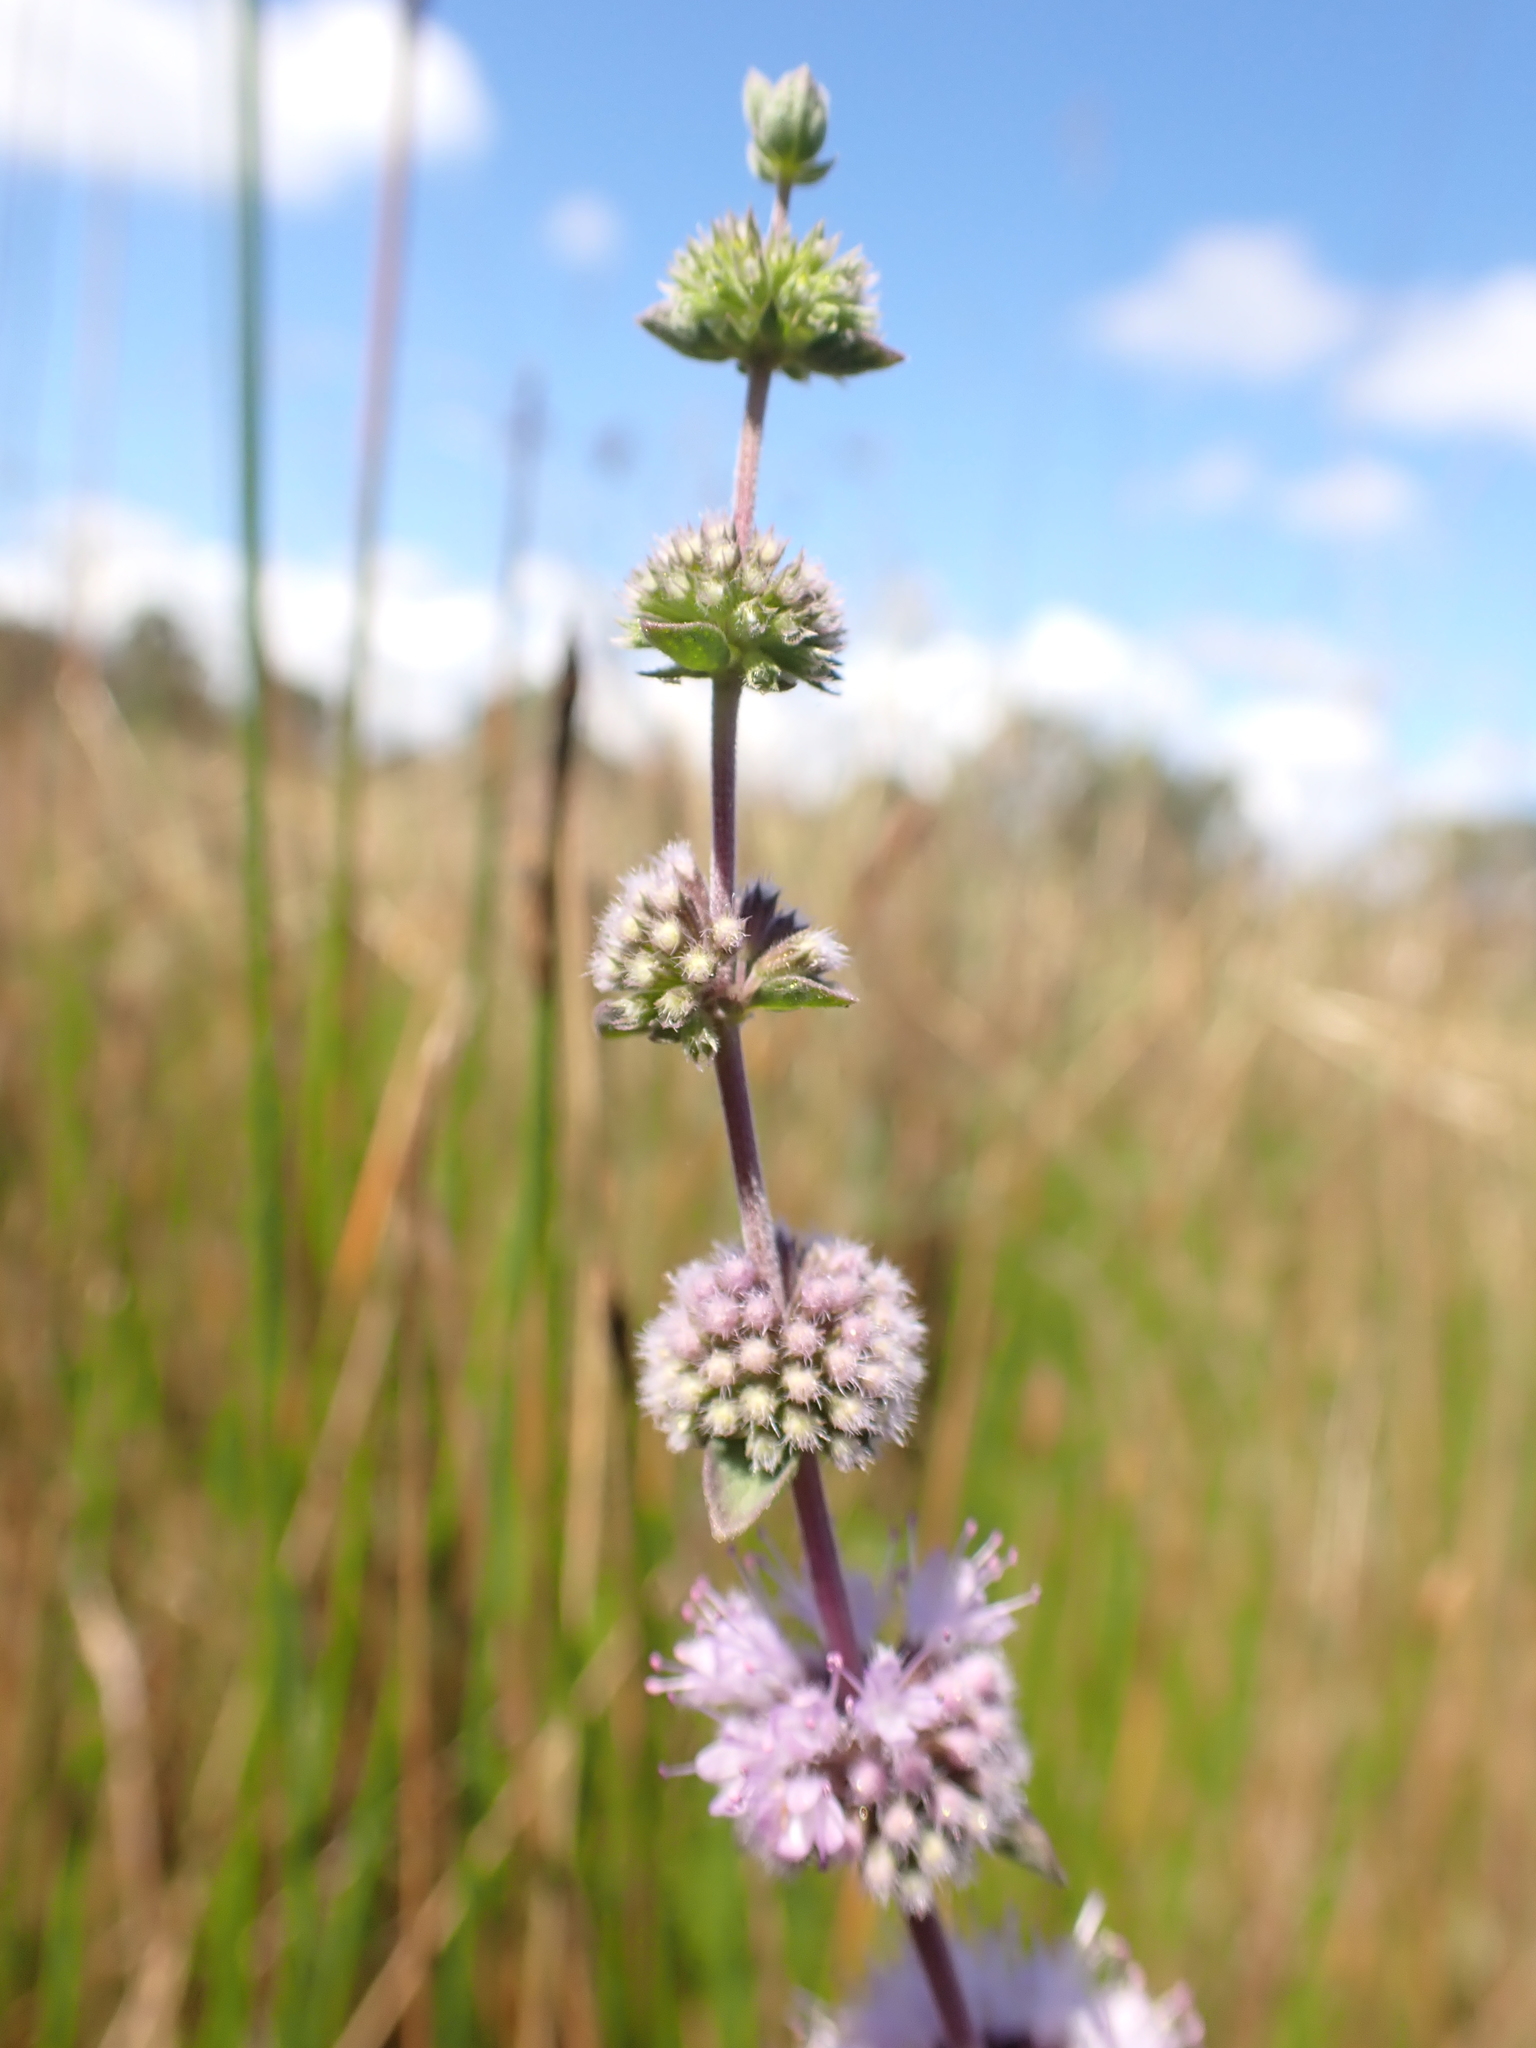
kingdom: Plantae
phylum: Tracheophyta
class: Magnoliopsida
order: Lamiales
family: Lamiaceae
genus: Mentha
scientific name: Mentha pulegium
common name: Pennyroyal
